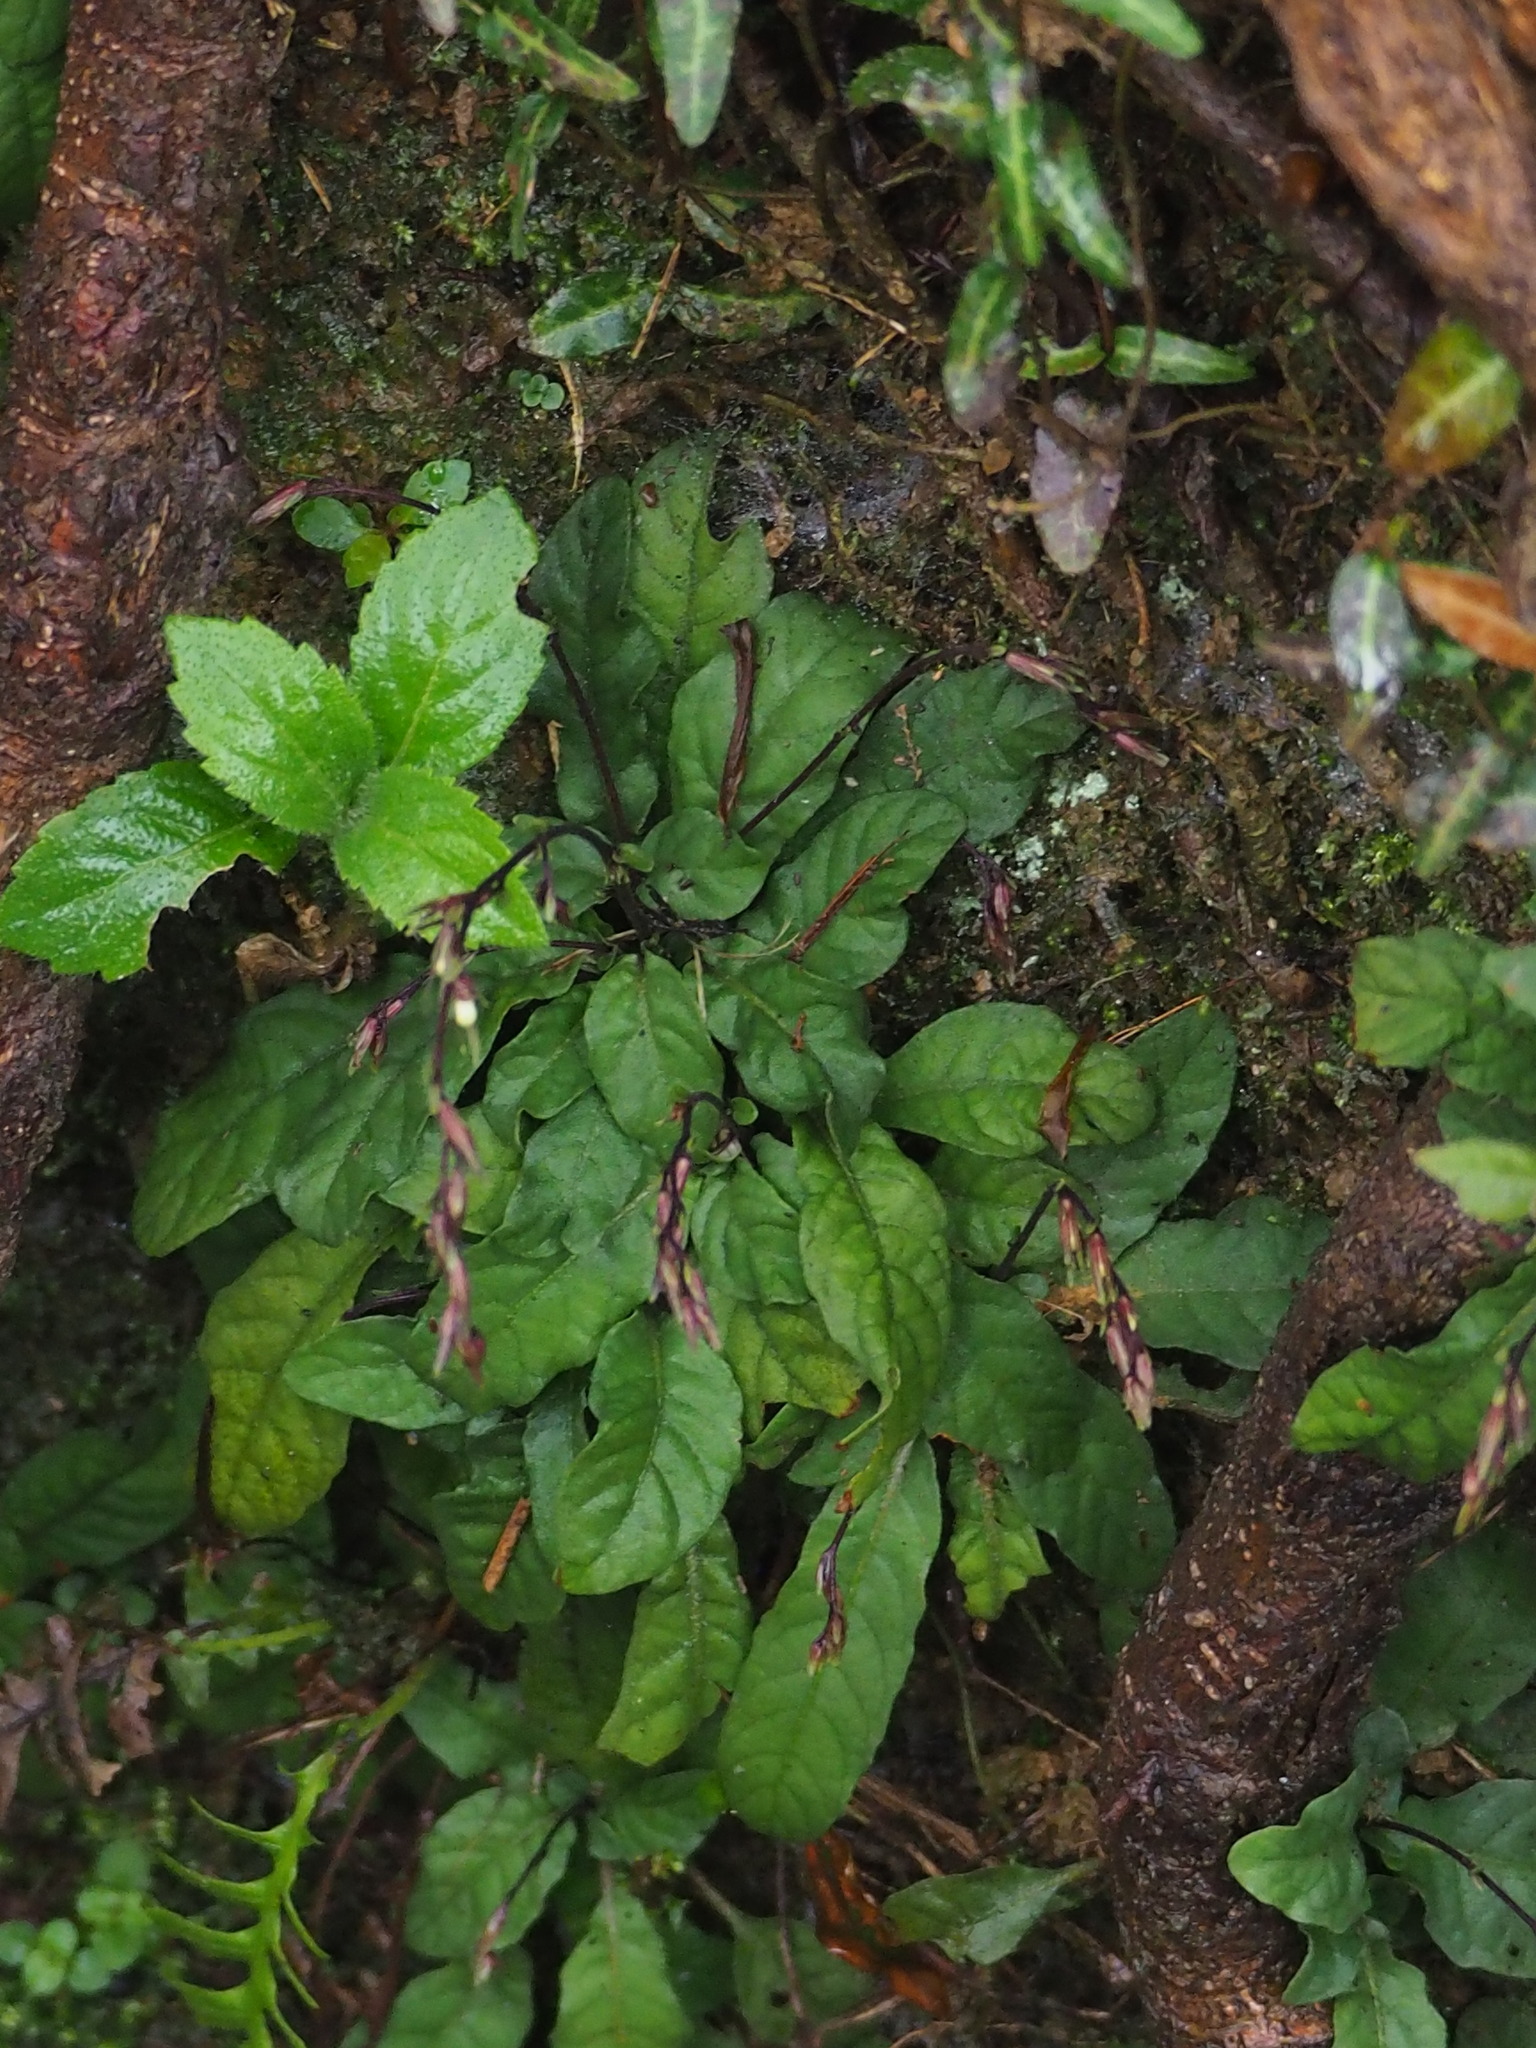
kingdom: Plantae
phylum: Tracheophyta
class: Magnoliopsida
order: Lamiales
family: Acanthaceae
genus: Staurogyne
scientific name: Staurogyne concinnula
